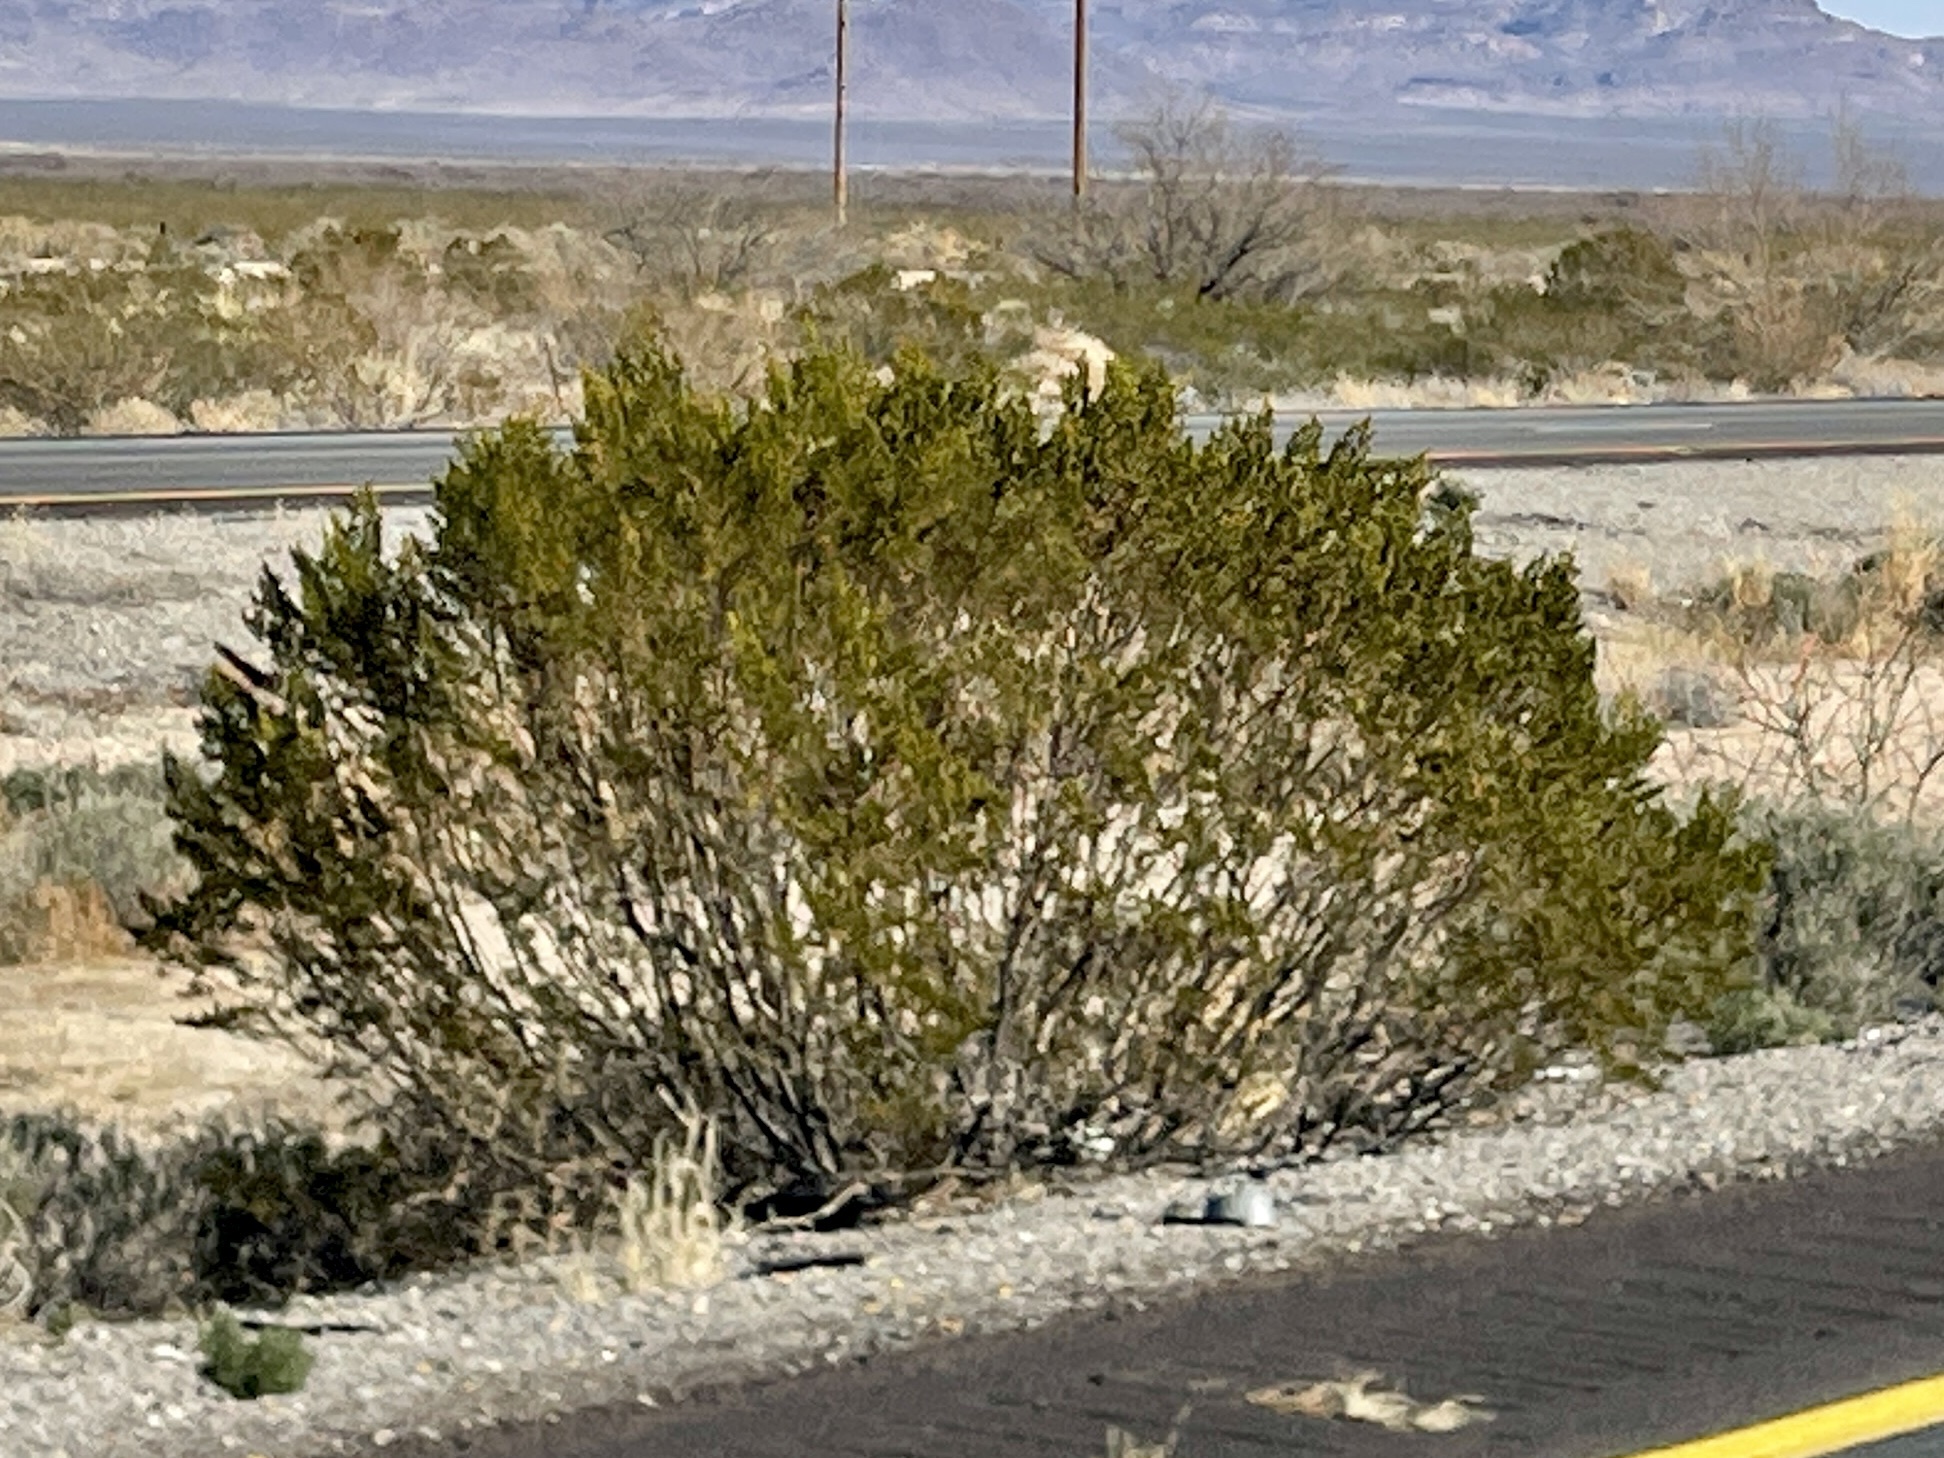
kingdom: Plantae
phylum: Tracheophyta
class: Magnoliopsida
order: Zygophyllales
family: Zygophyllaceae
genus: Larrea
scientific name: Larrea tridentata
